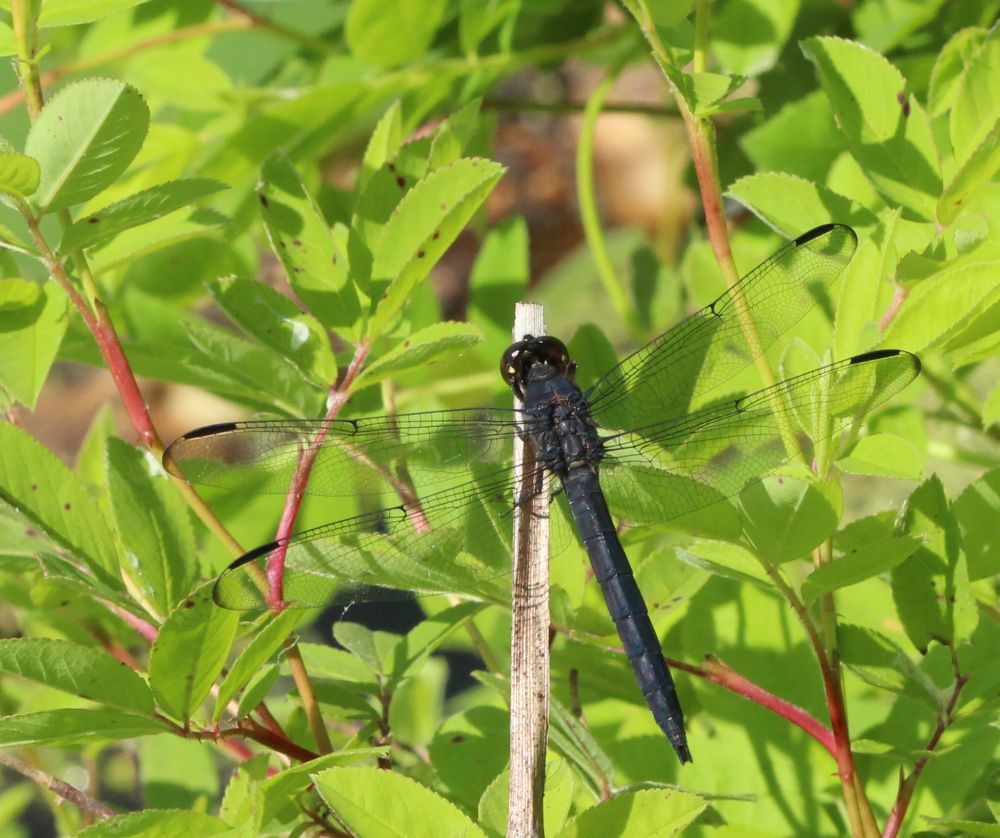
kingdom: Animalia
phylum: Arthropoda
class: Insecta
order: Odonata
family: Libellulidae
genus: Libellula
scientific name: Libellula incesta
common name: Slaty skimmer
